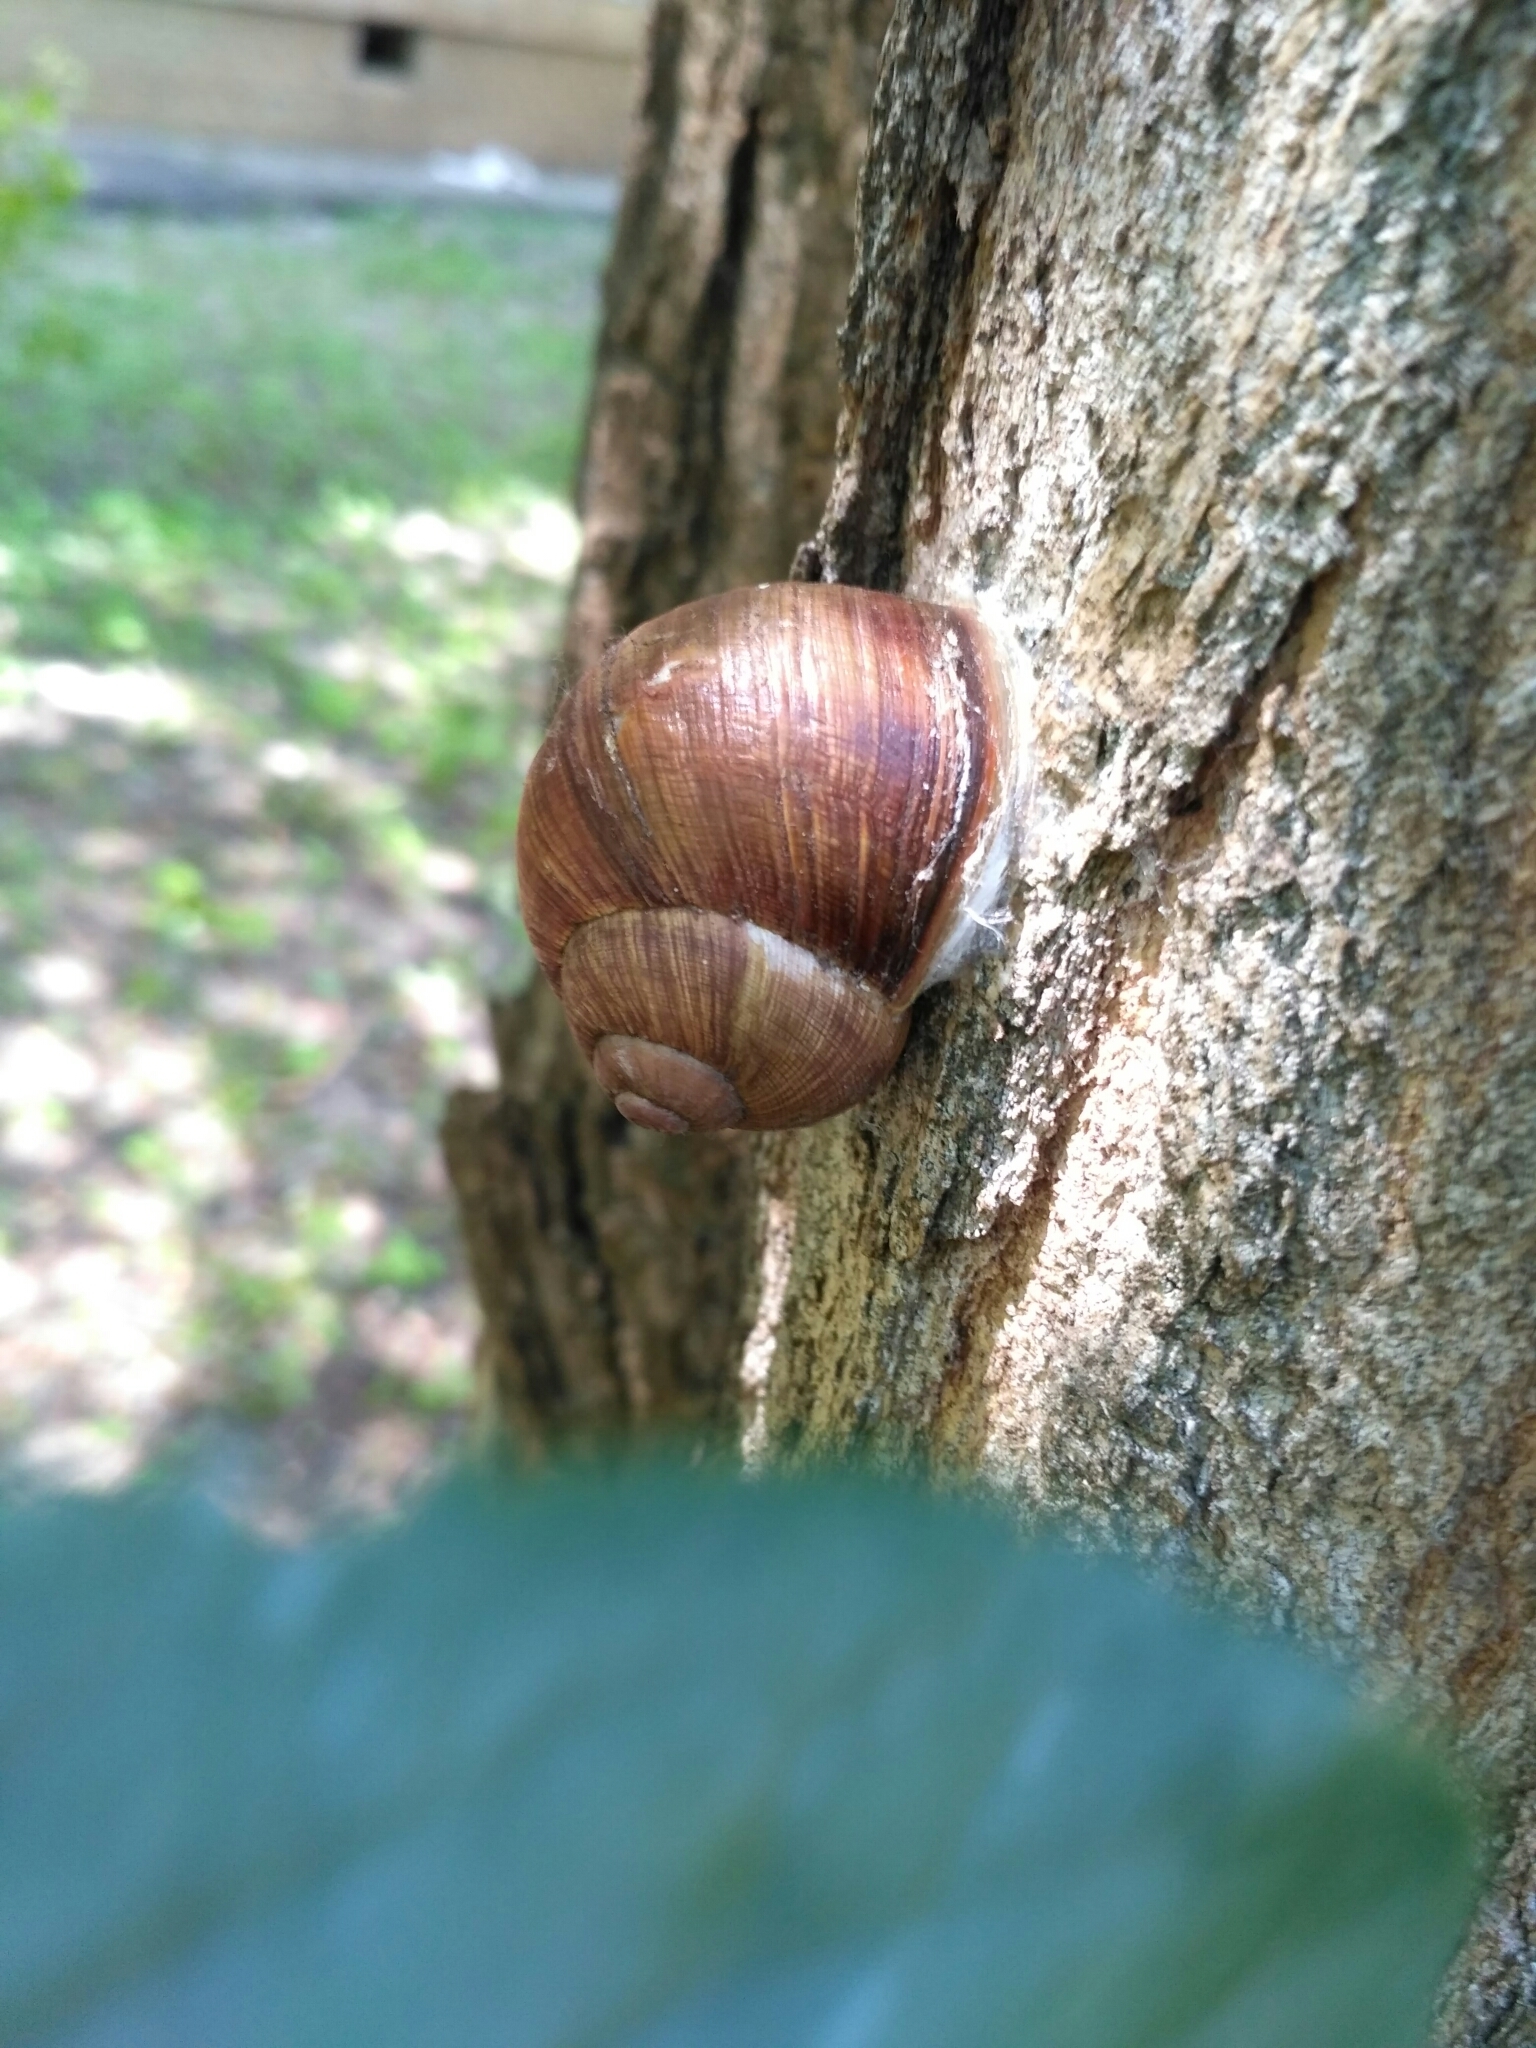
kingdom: Animalia
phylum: Mollusca
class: Gastropoda
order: Stylommatophora
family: Helicidae
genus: Helix
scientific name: Helix pomatia
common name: Roman snail
